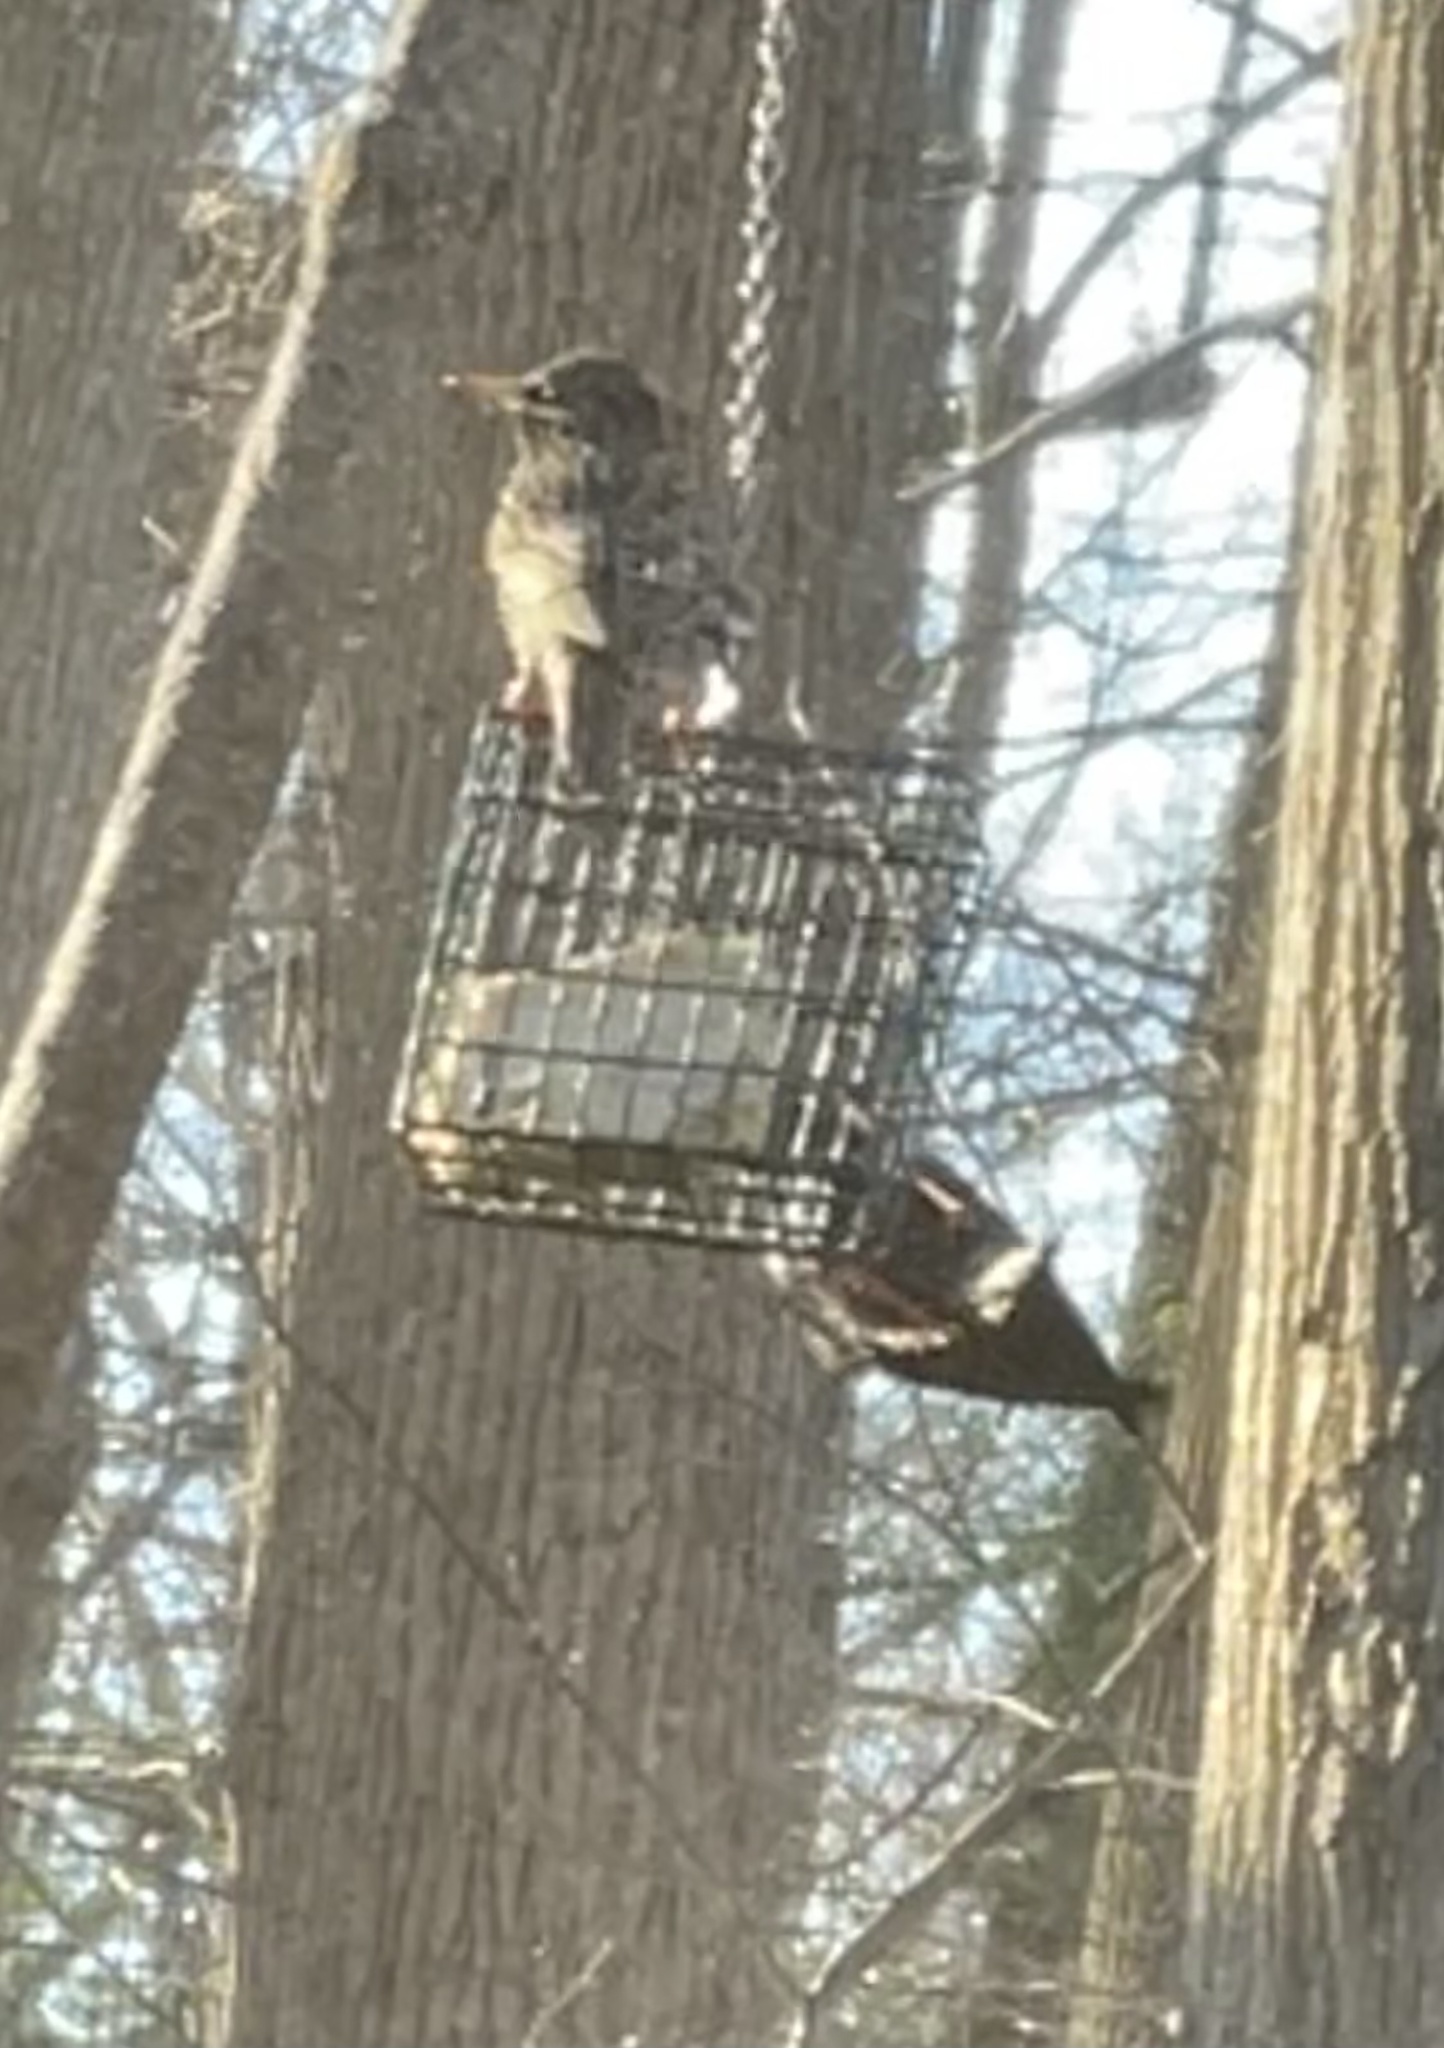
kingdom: Animalia
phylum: Chordata
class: Aves
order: Passeriformes
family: Sturnidae
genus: Sturnus
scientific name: Sturnus vulgaris
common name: Common starling
